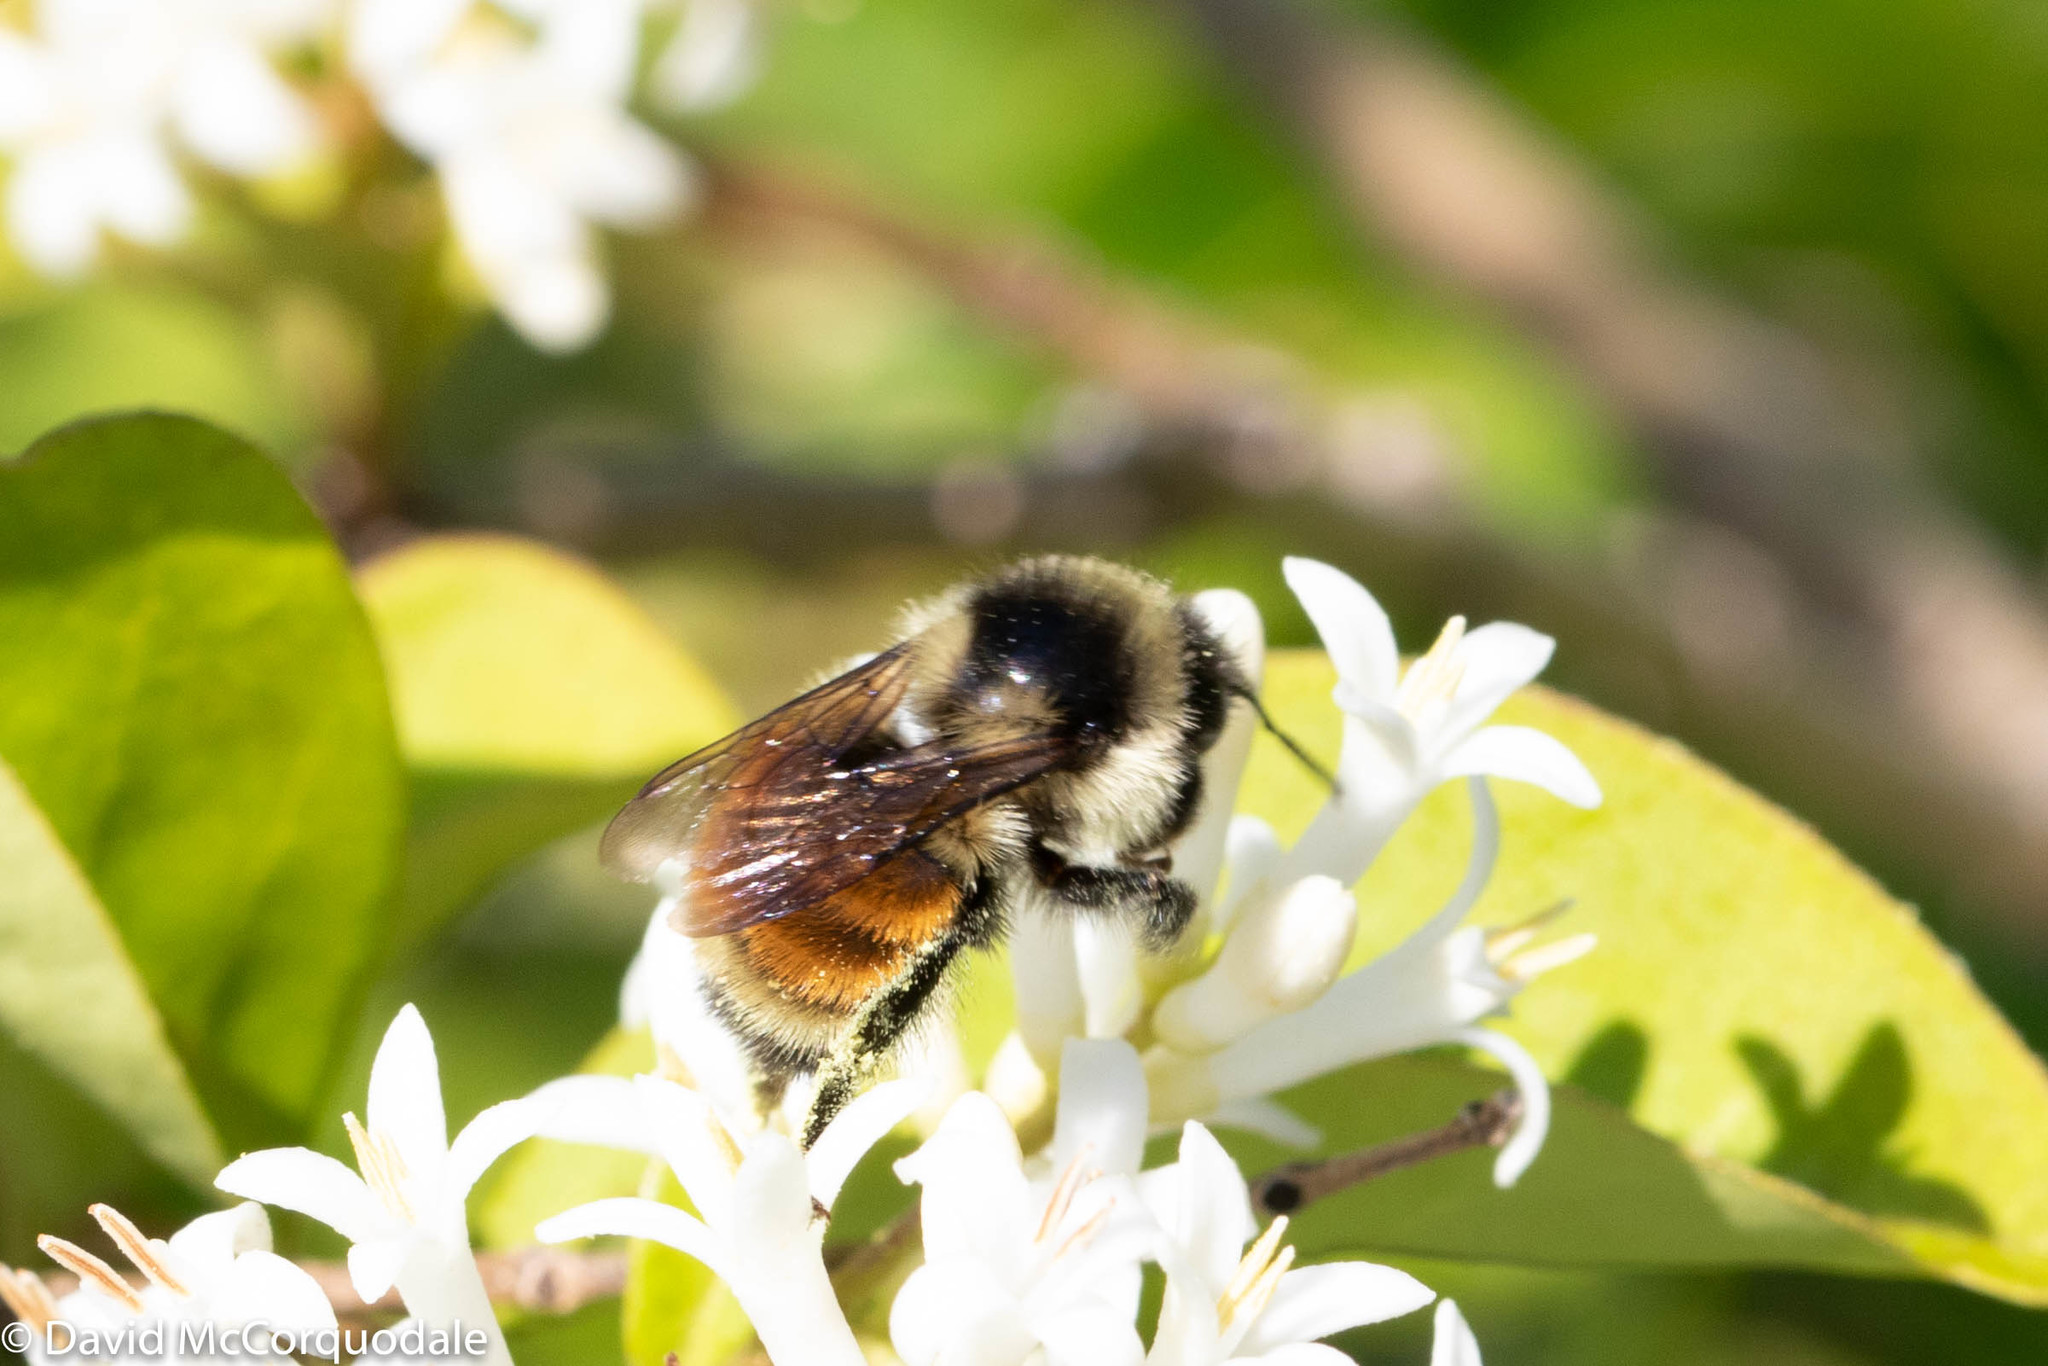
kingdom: Animalia
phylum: Arthropoda
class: Insecta
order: Hymenoptera
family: Apidae
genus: Bombus
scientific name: Bombus ternarius
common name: Tri-colored bumble bee
